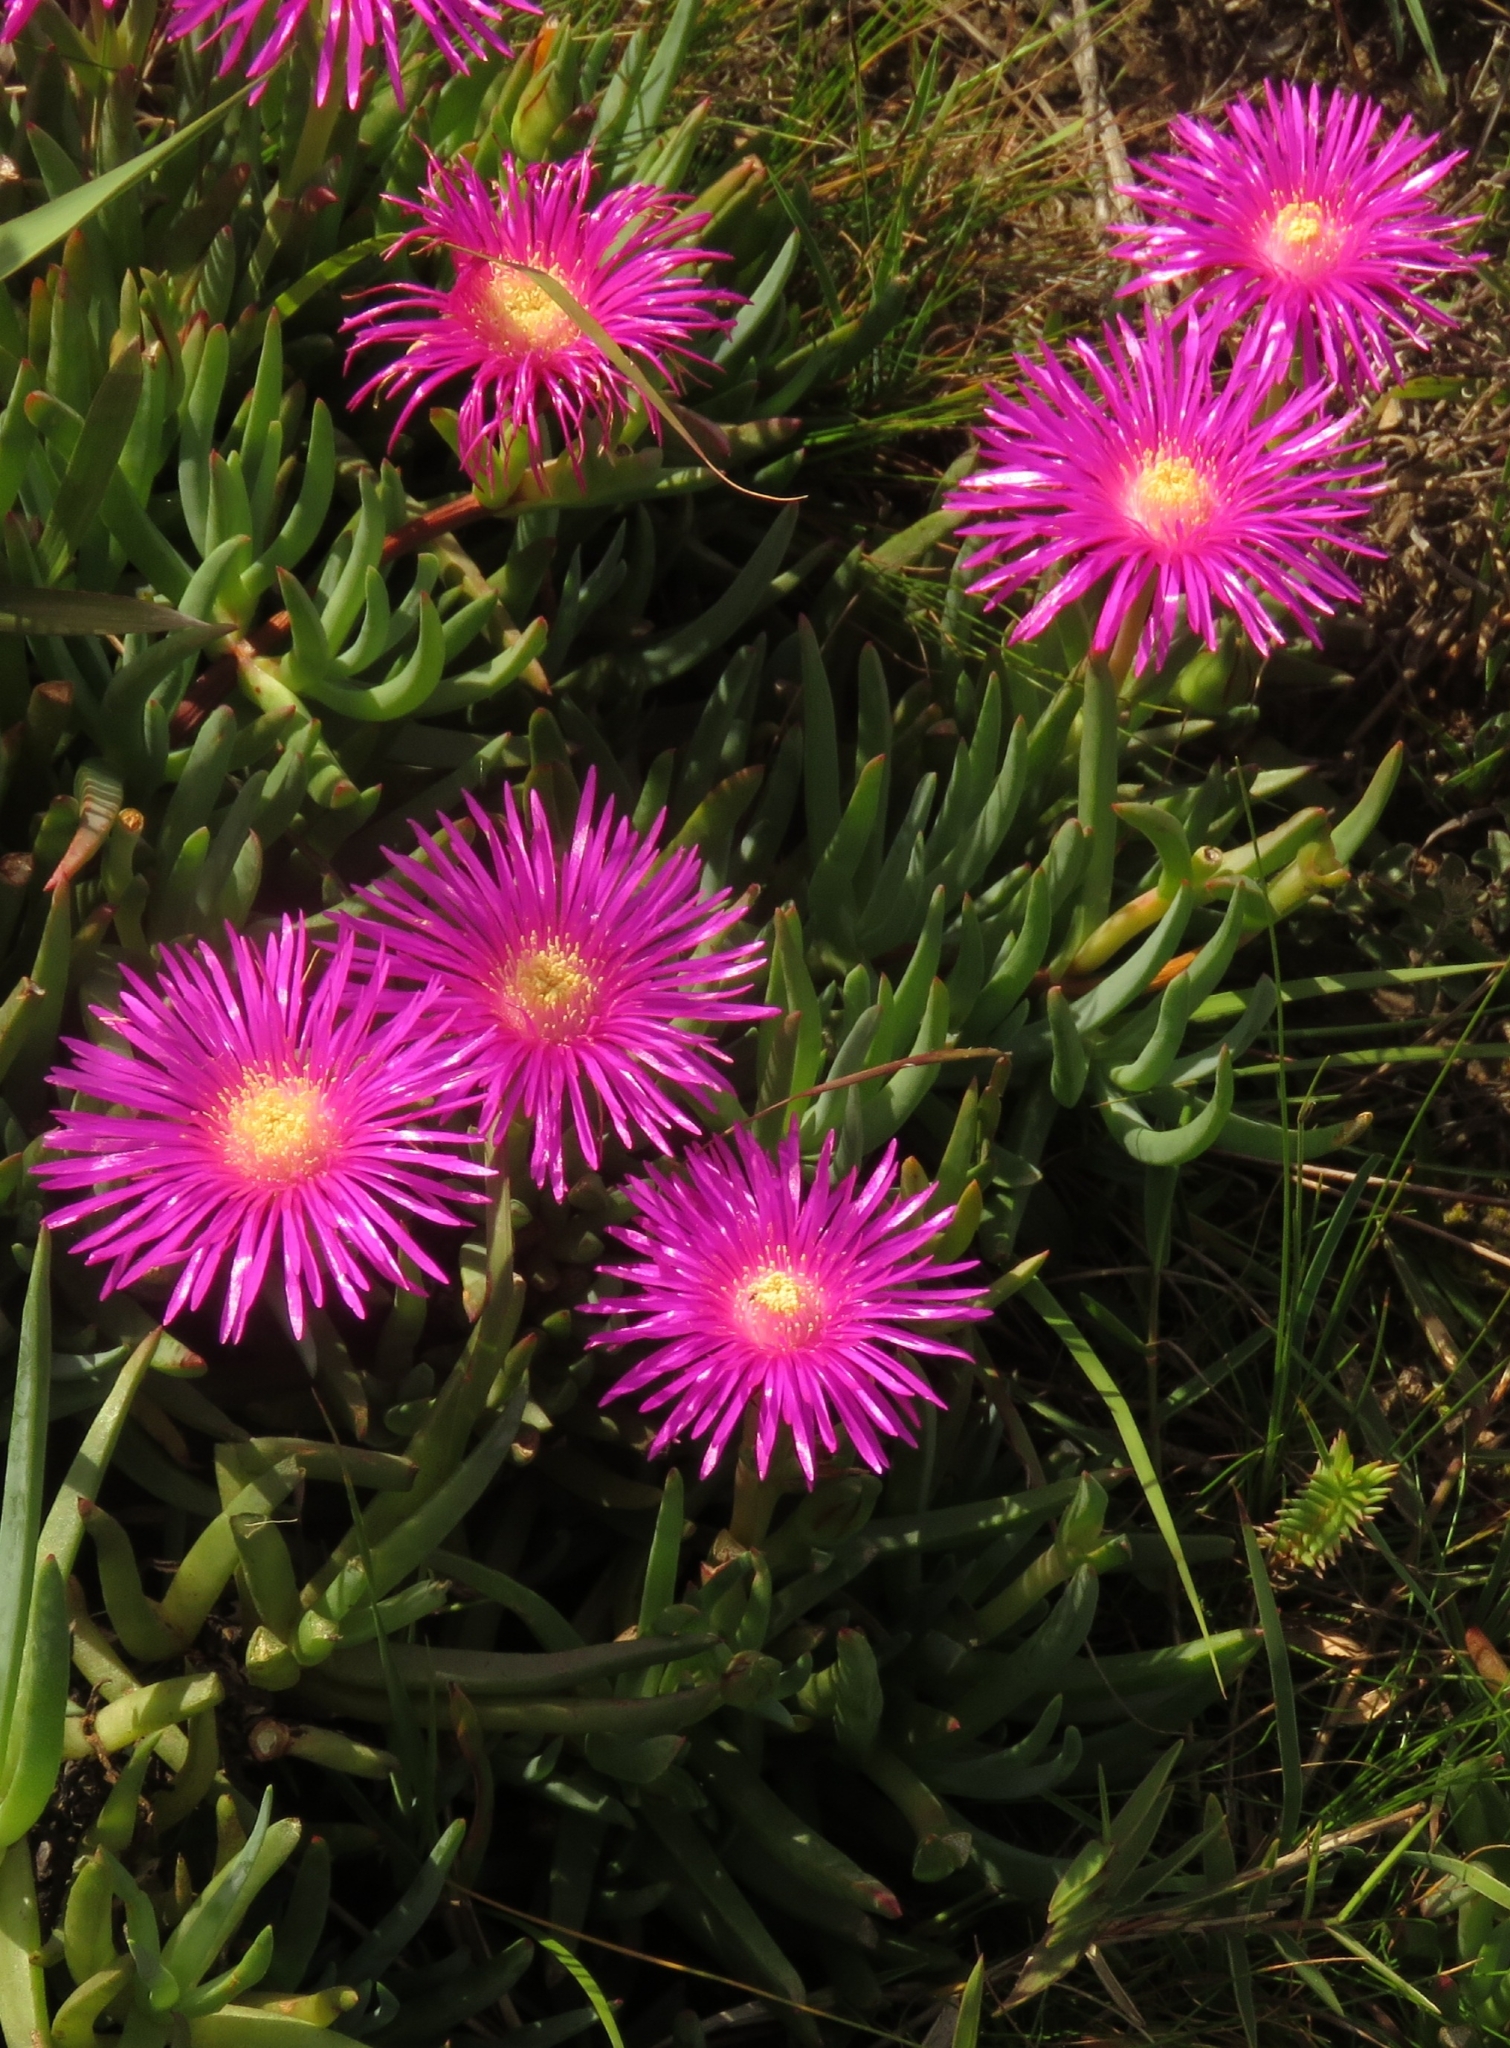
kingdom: Plantae
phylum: Tracheophyta
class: Magnoliopsida
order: Caryophyllales
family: Aizoaceae
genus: Lampranthus
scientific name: Lampranthus spectabilis
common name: Trailing iceplant
